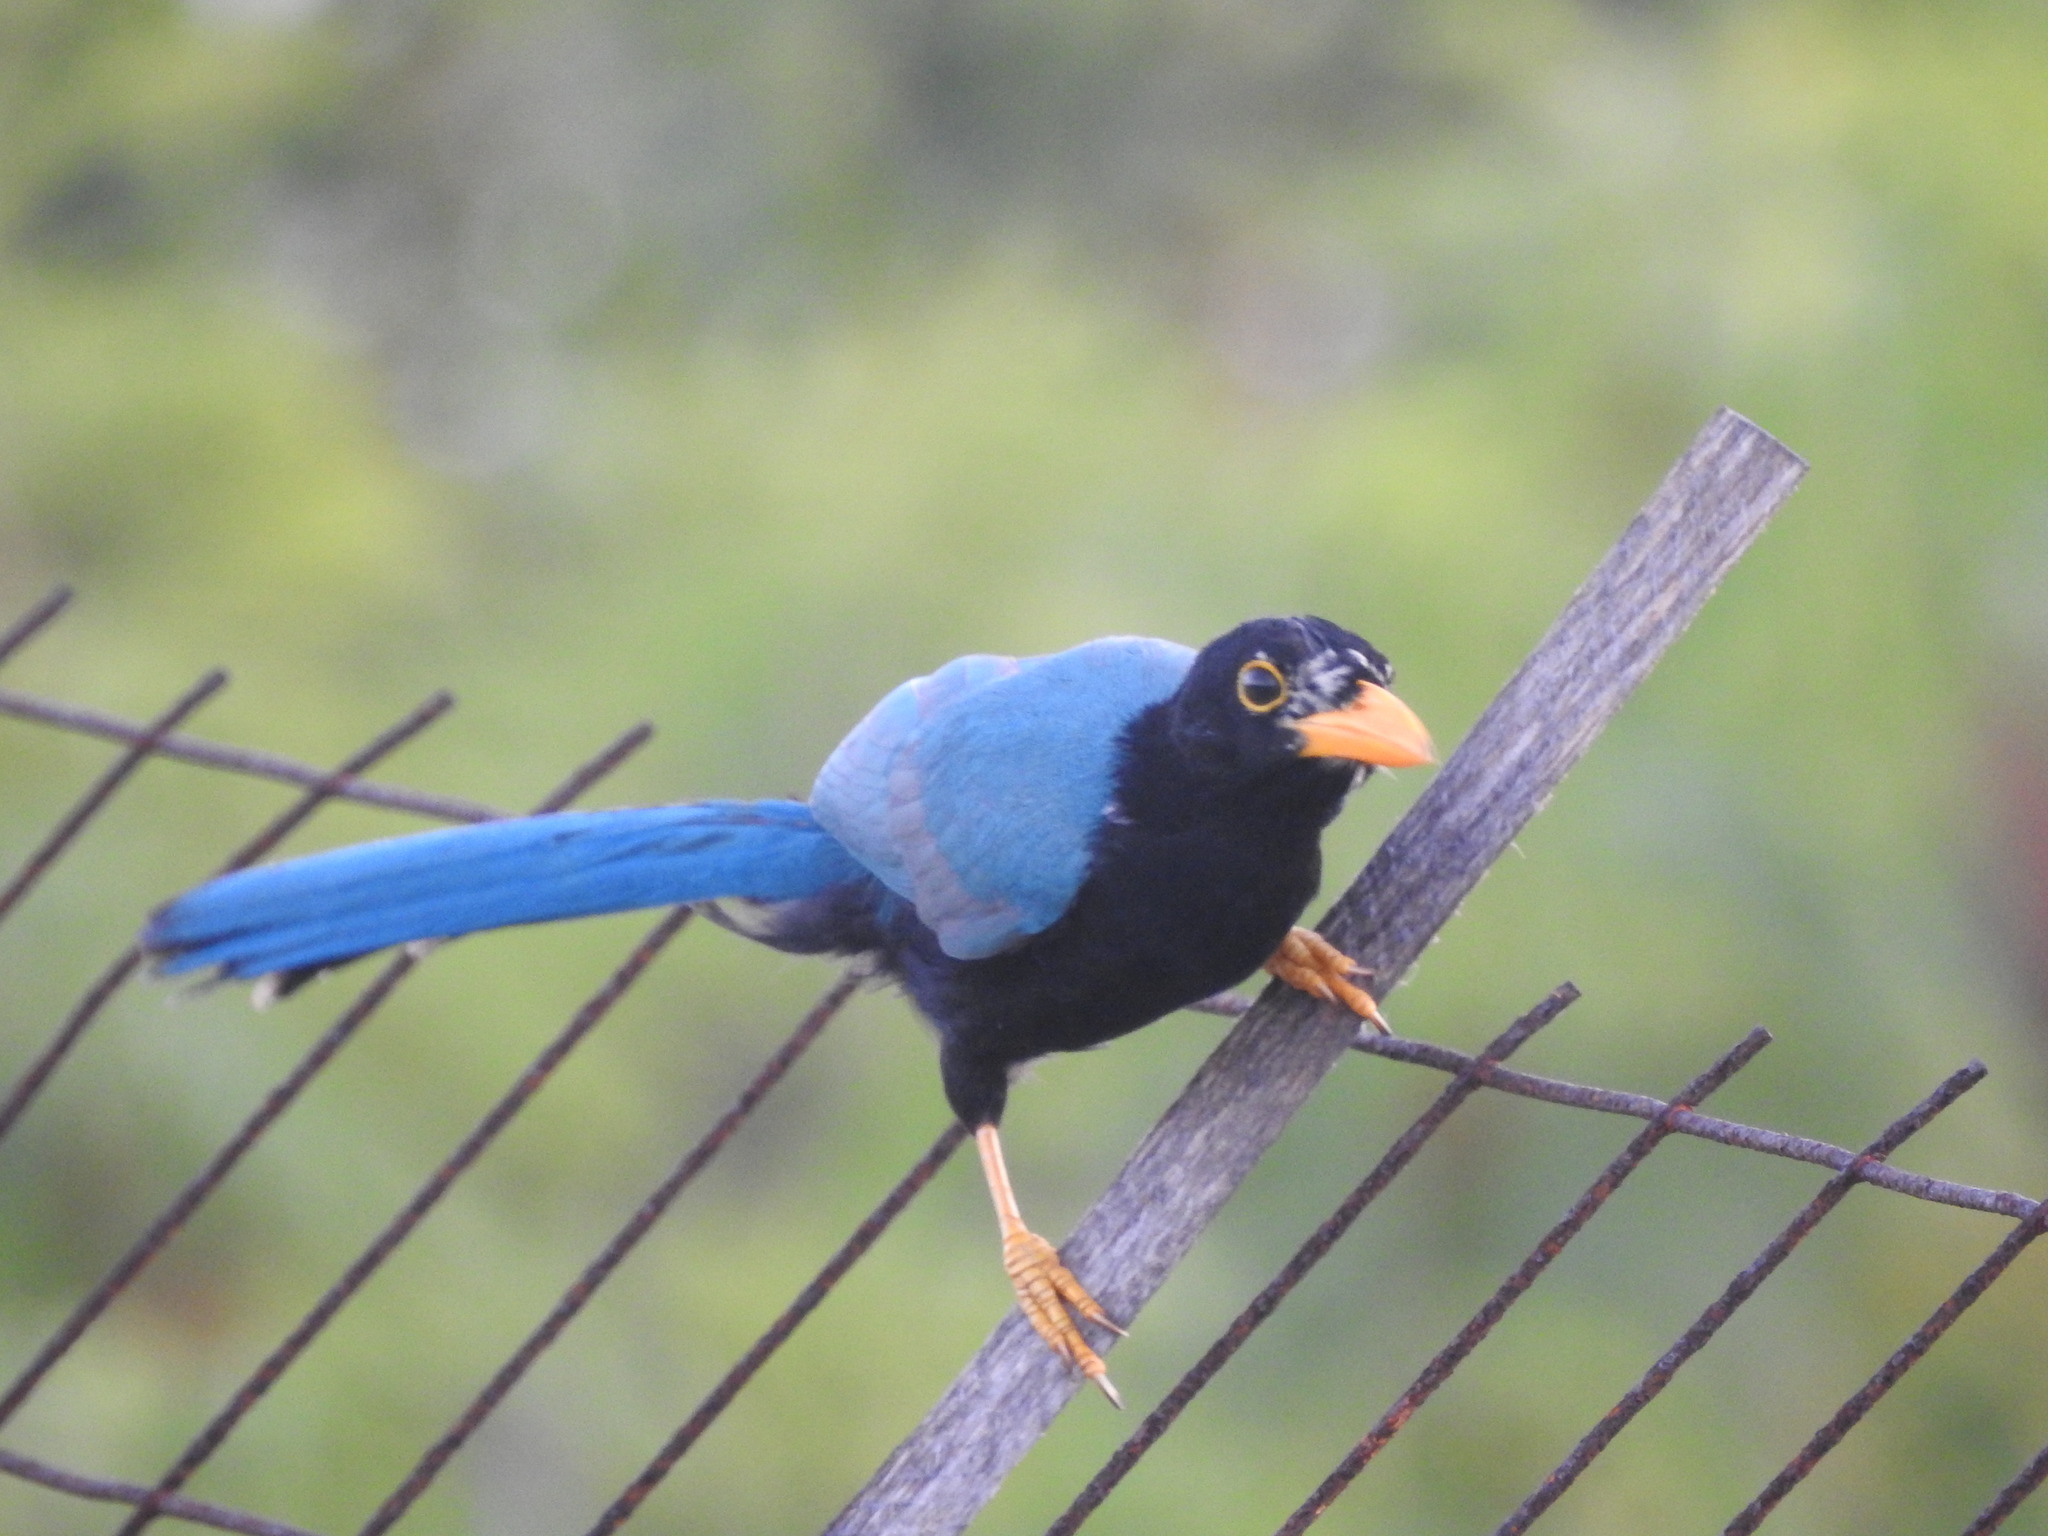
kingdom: Animalia
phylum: Chordata
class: Aves
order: Passeriformes
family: Corvidae
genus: Cyanocorax
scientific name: Cyanocorax yucatanicus
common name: Yucatan jay
